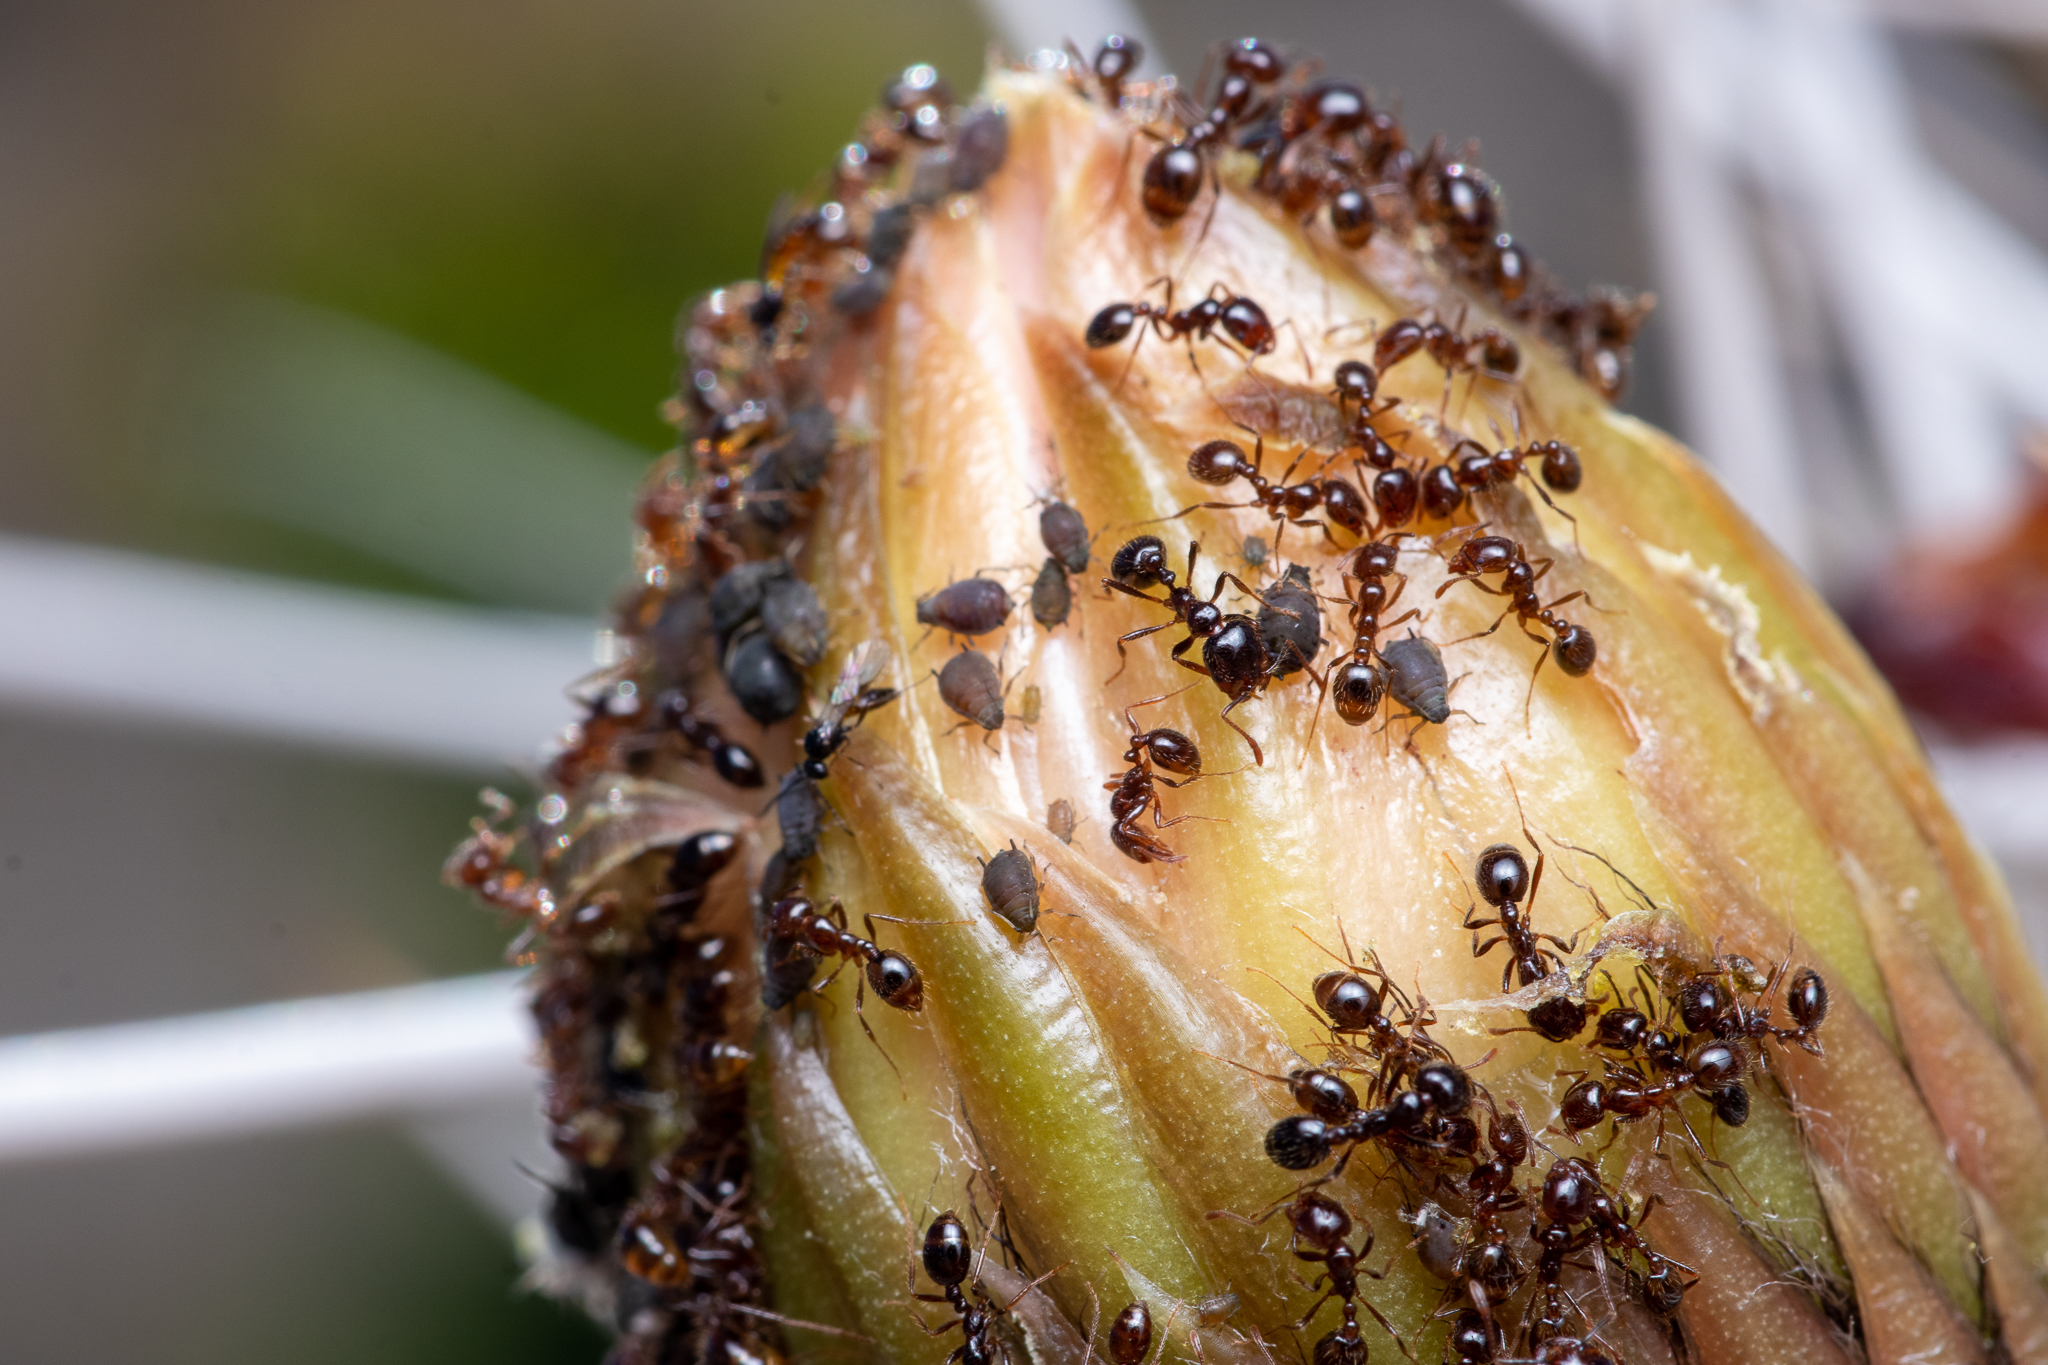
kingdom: Animalia
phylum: Arthropoda
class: Insecta
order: Hymenoptera
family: Formicidae
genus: Solenopsis
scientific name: Solenopsis gayi
